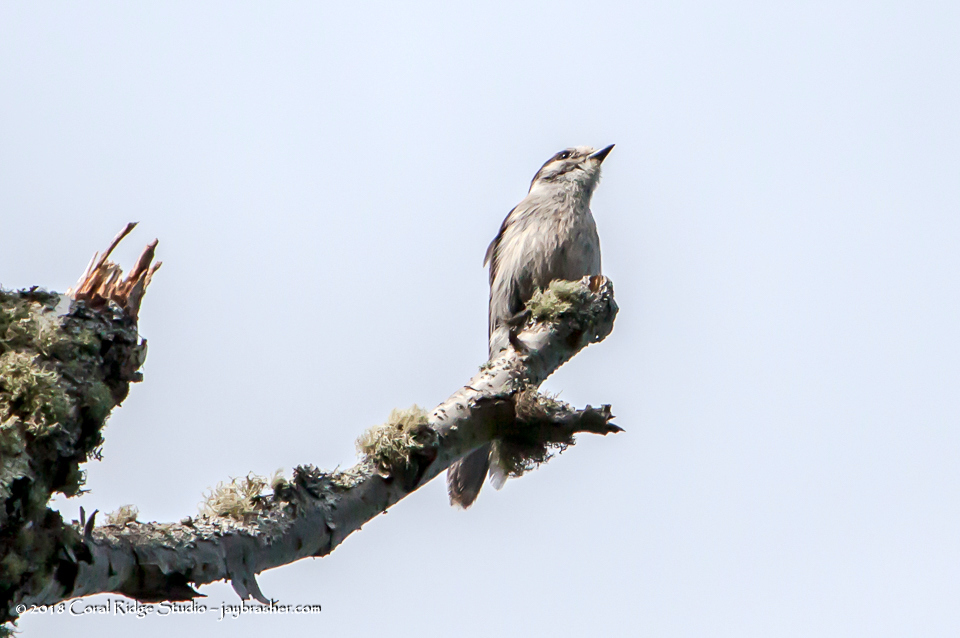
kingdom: Animalia
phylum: Chordata
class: Aves
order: Passeriformes
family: Corvidae
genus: Perisoreus
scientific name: Perisoreus canadensis
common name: Gray jay
